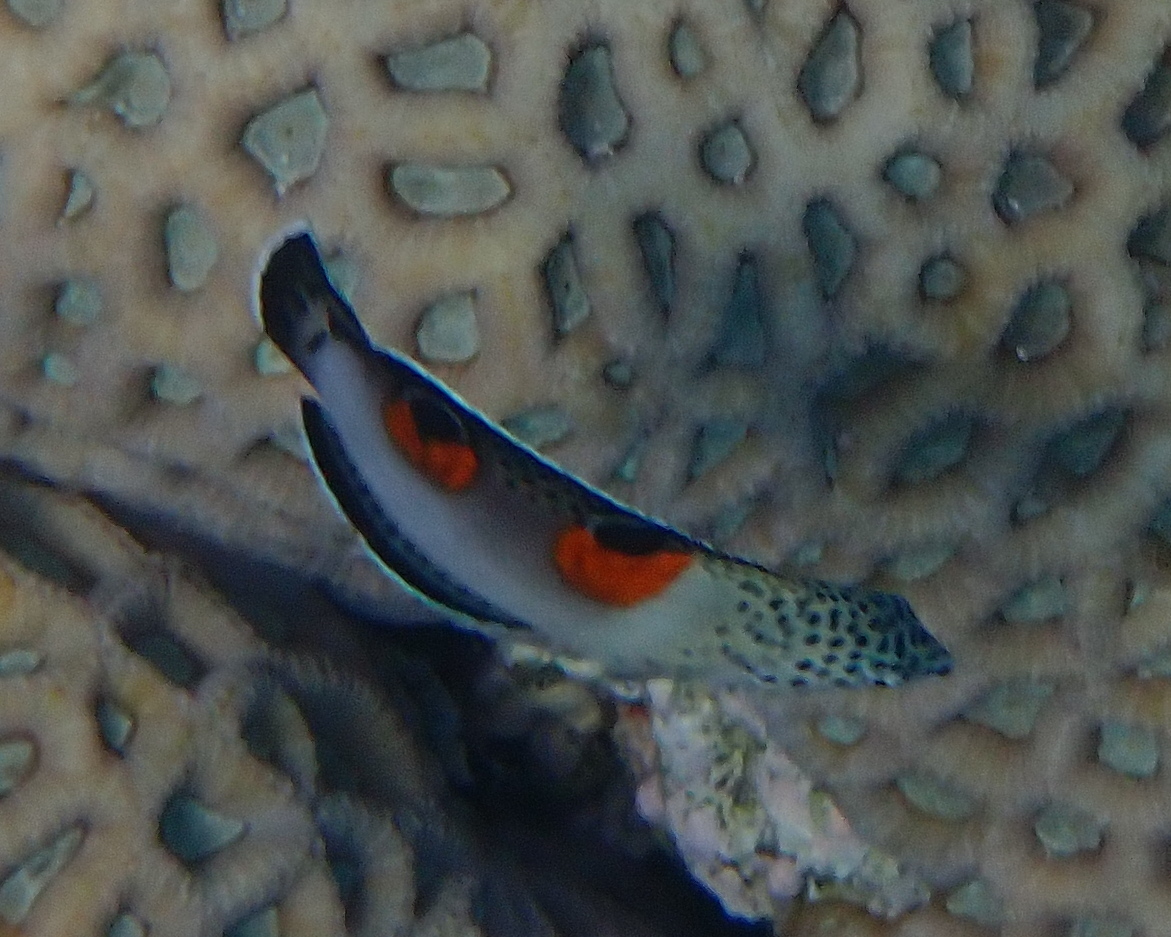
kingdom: Animalia
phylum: Chordata
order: Perciformes
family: Labridae
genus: Coris
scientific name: Coris aygula
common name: Clown coris
